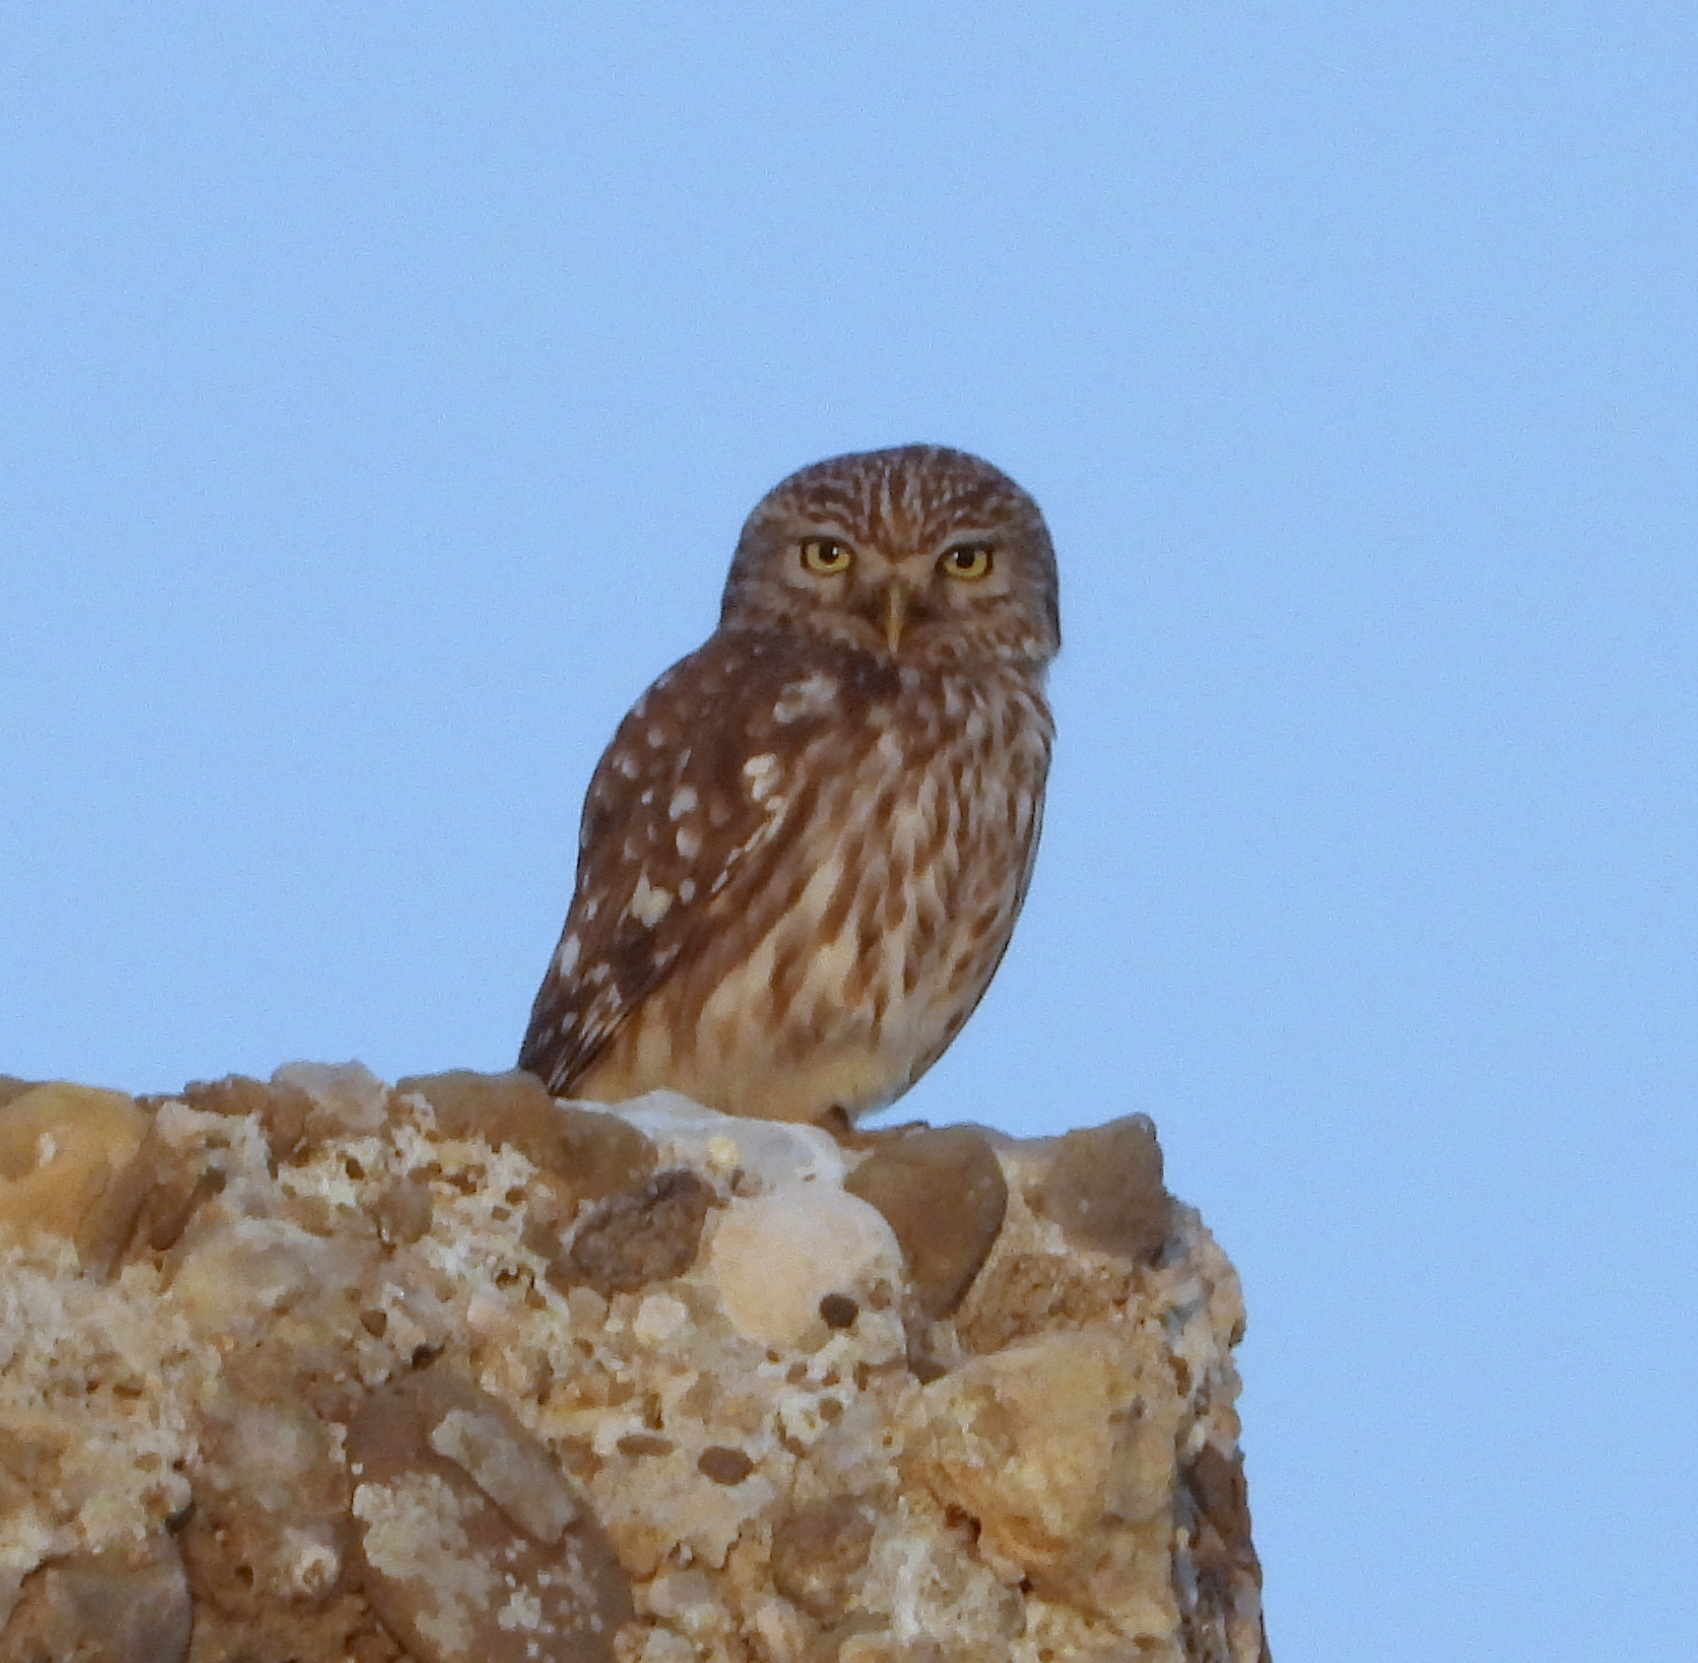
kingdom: Animalia
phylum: Chordata
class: Aves
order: Strigiformes
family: Strigidae
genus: Athene
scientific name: Athene noctua
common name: Little owl
